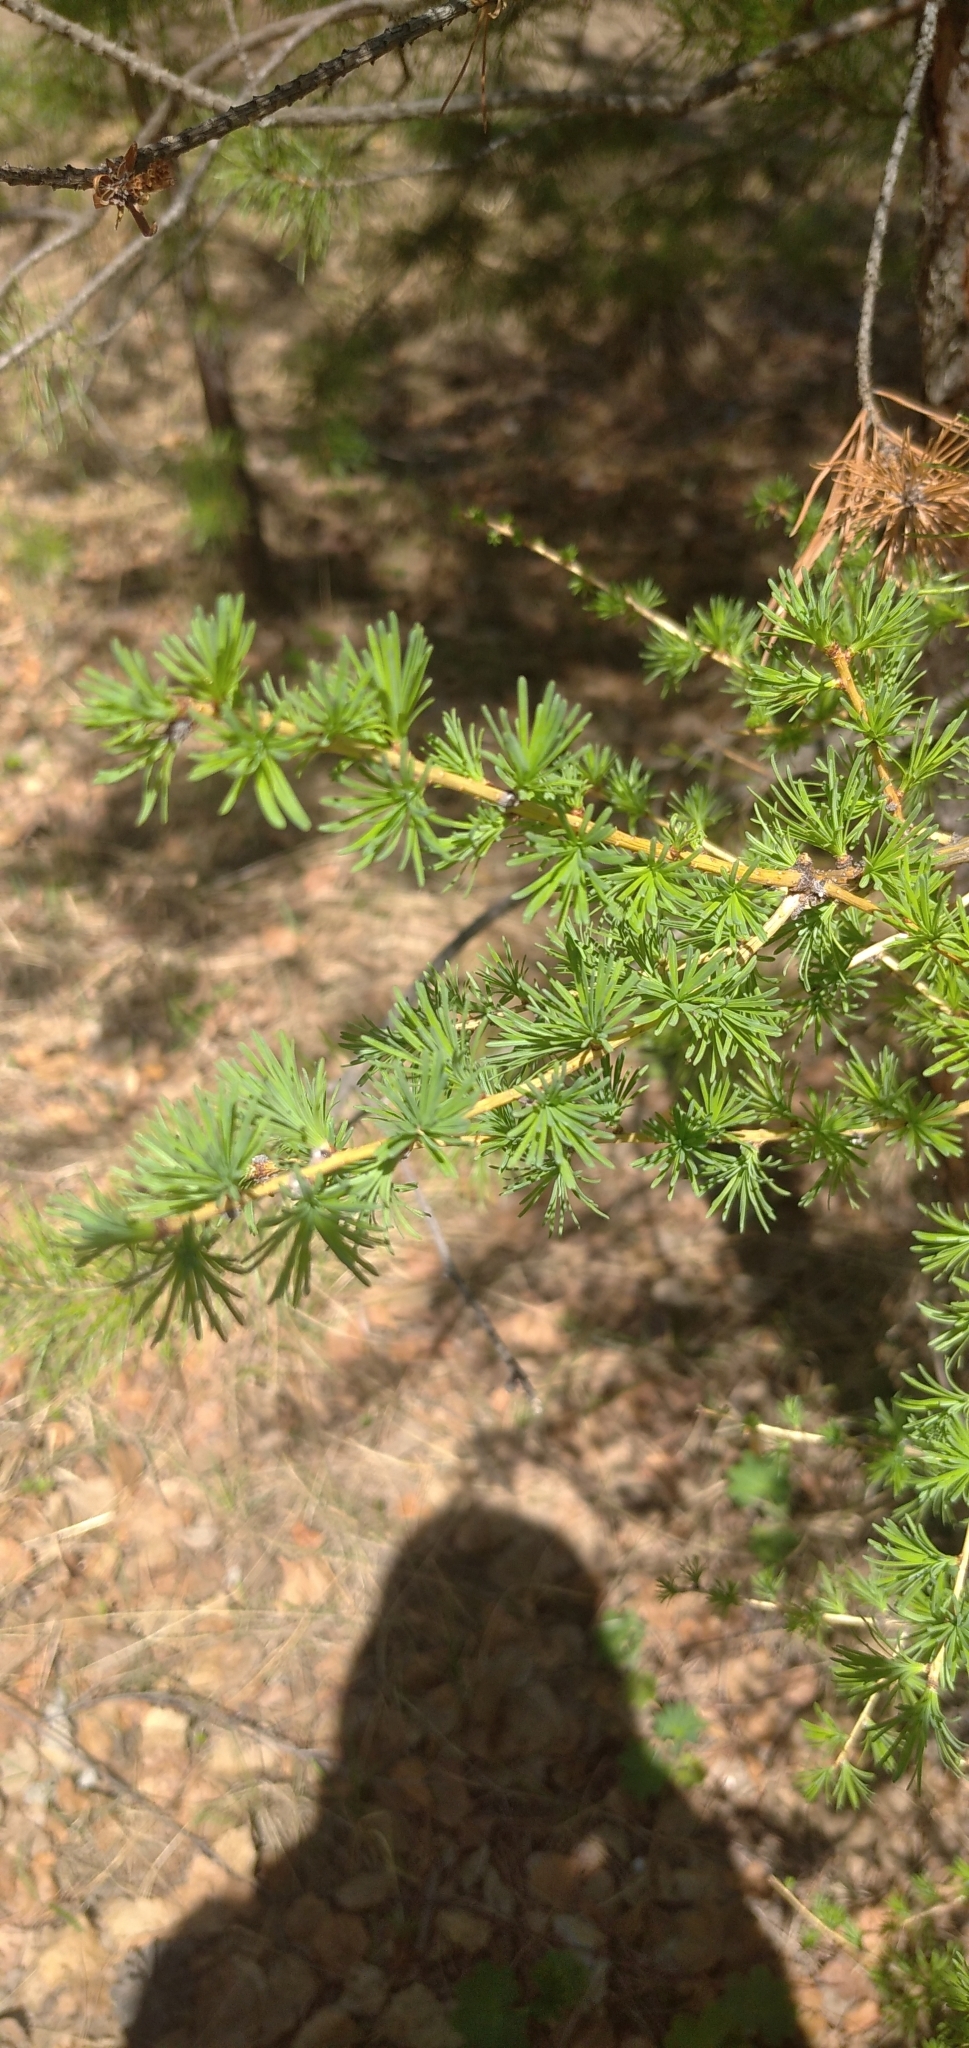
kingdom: Plantae
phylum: Tracheophyta
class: Pinopsida
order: Pinales
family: Pinaceae
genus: Larix
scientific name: Larix sibirica
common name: Siberian larch
